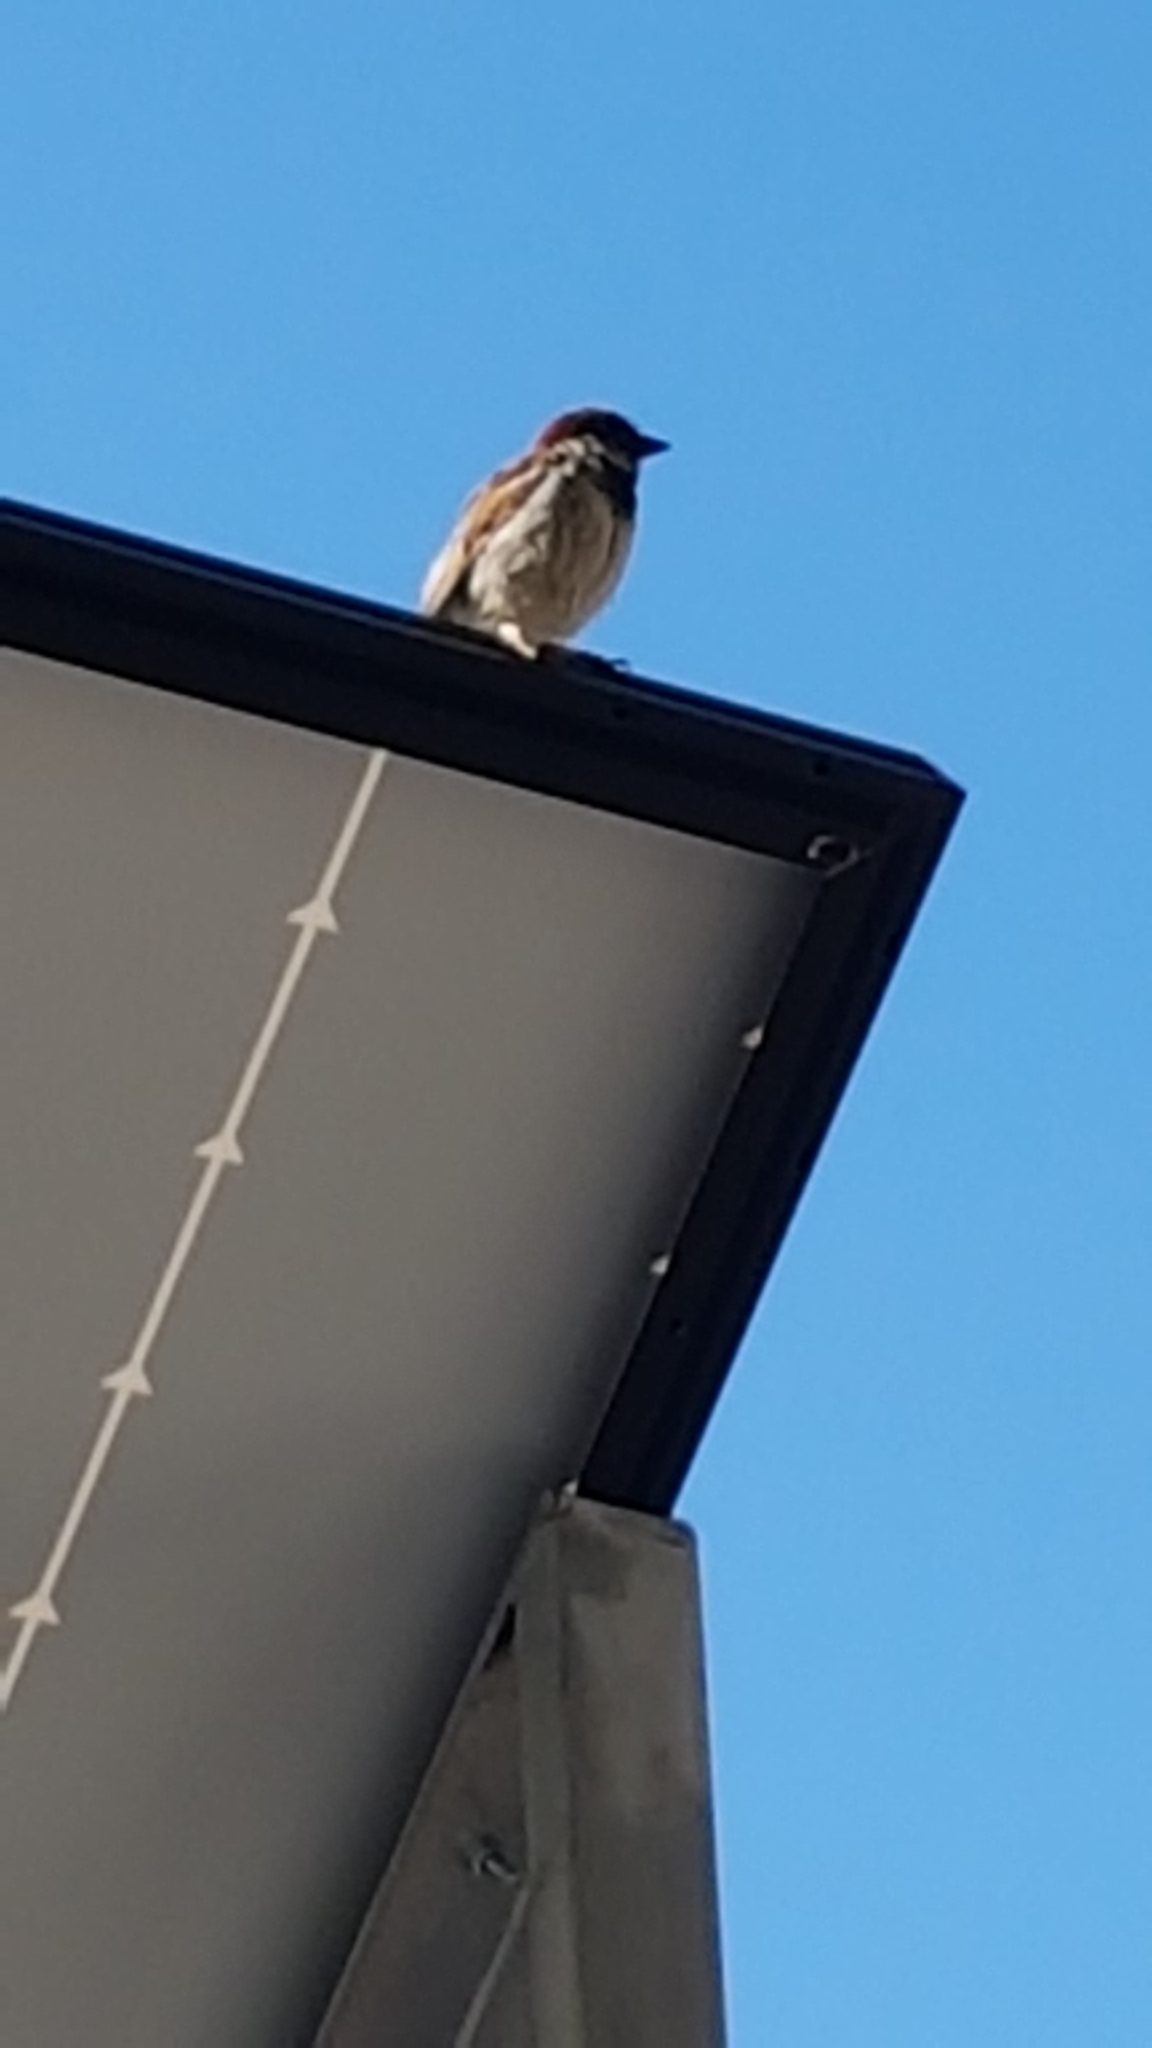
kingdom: Animalia
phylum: Chordata
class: Aves
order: Passeriformes
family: Passeridae
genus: Passer
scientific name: Passer domesticus
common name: House sparrow
